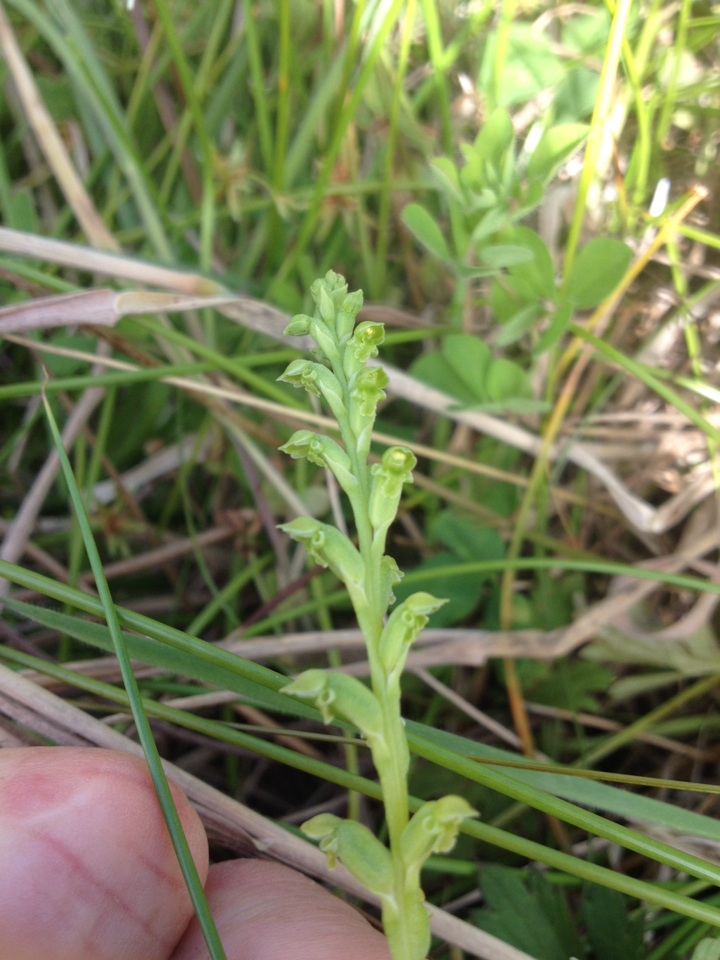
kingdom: Plantae
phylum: Tracheophyta
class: Liliopsida
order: Asparagales
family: Orchidaceae
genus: Microtis
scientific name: Microtis unifolia
